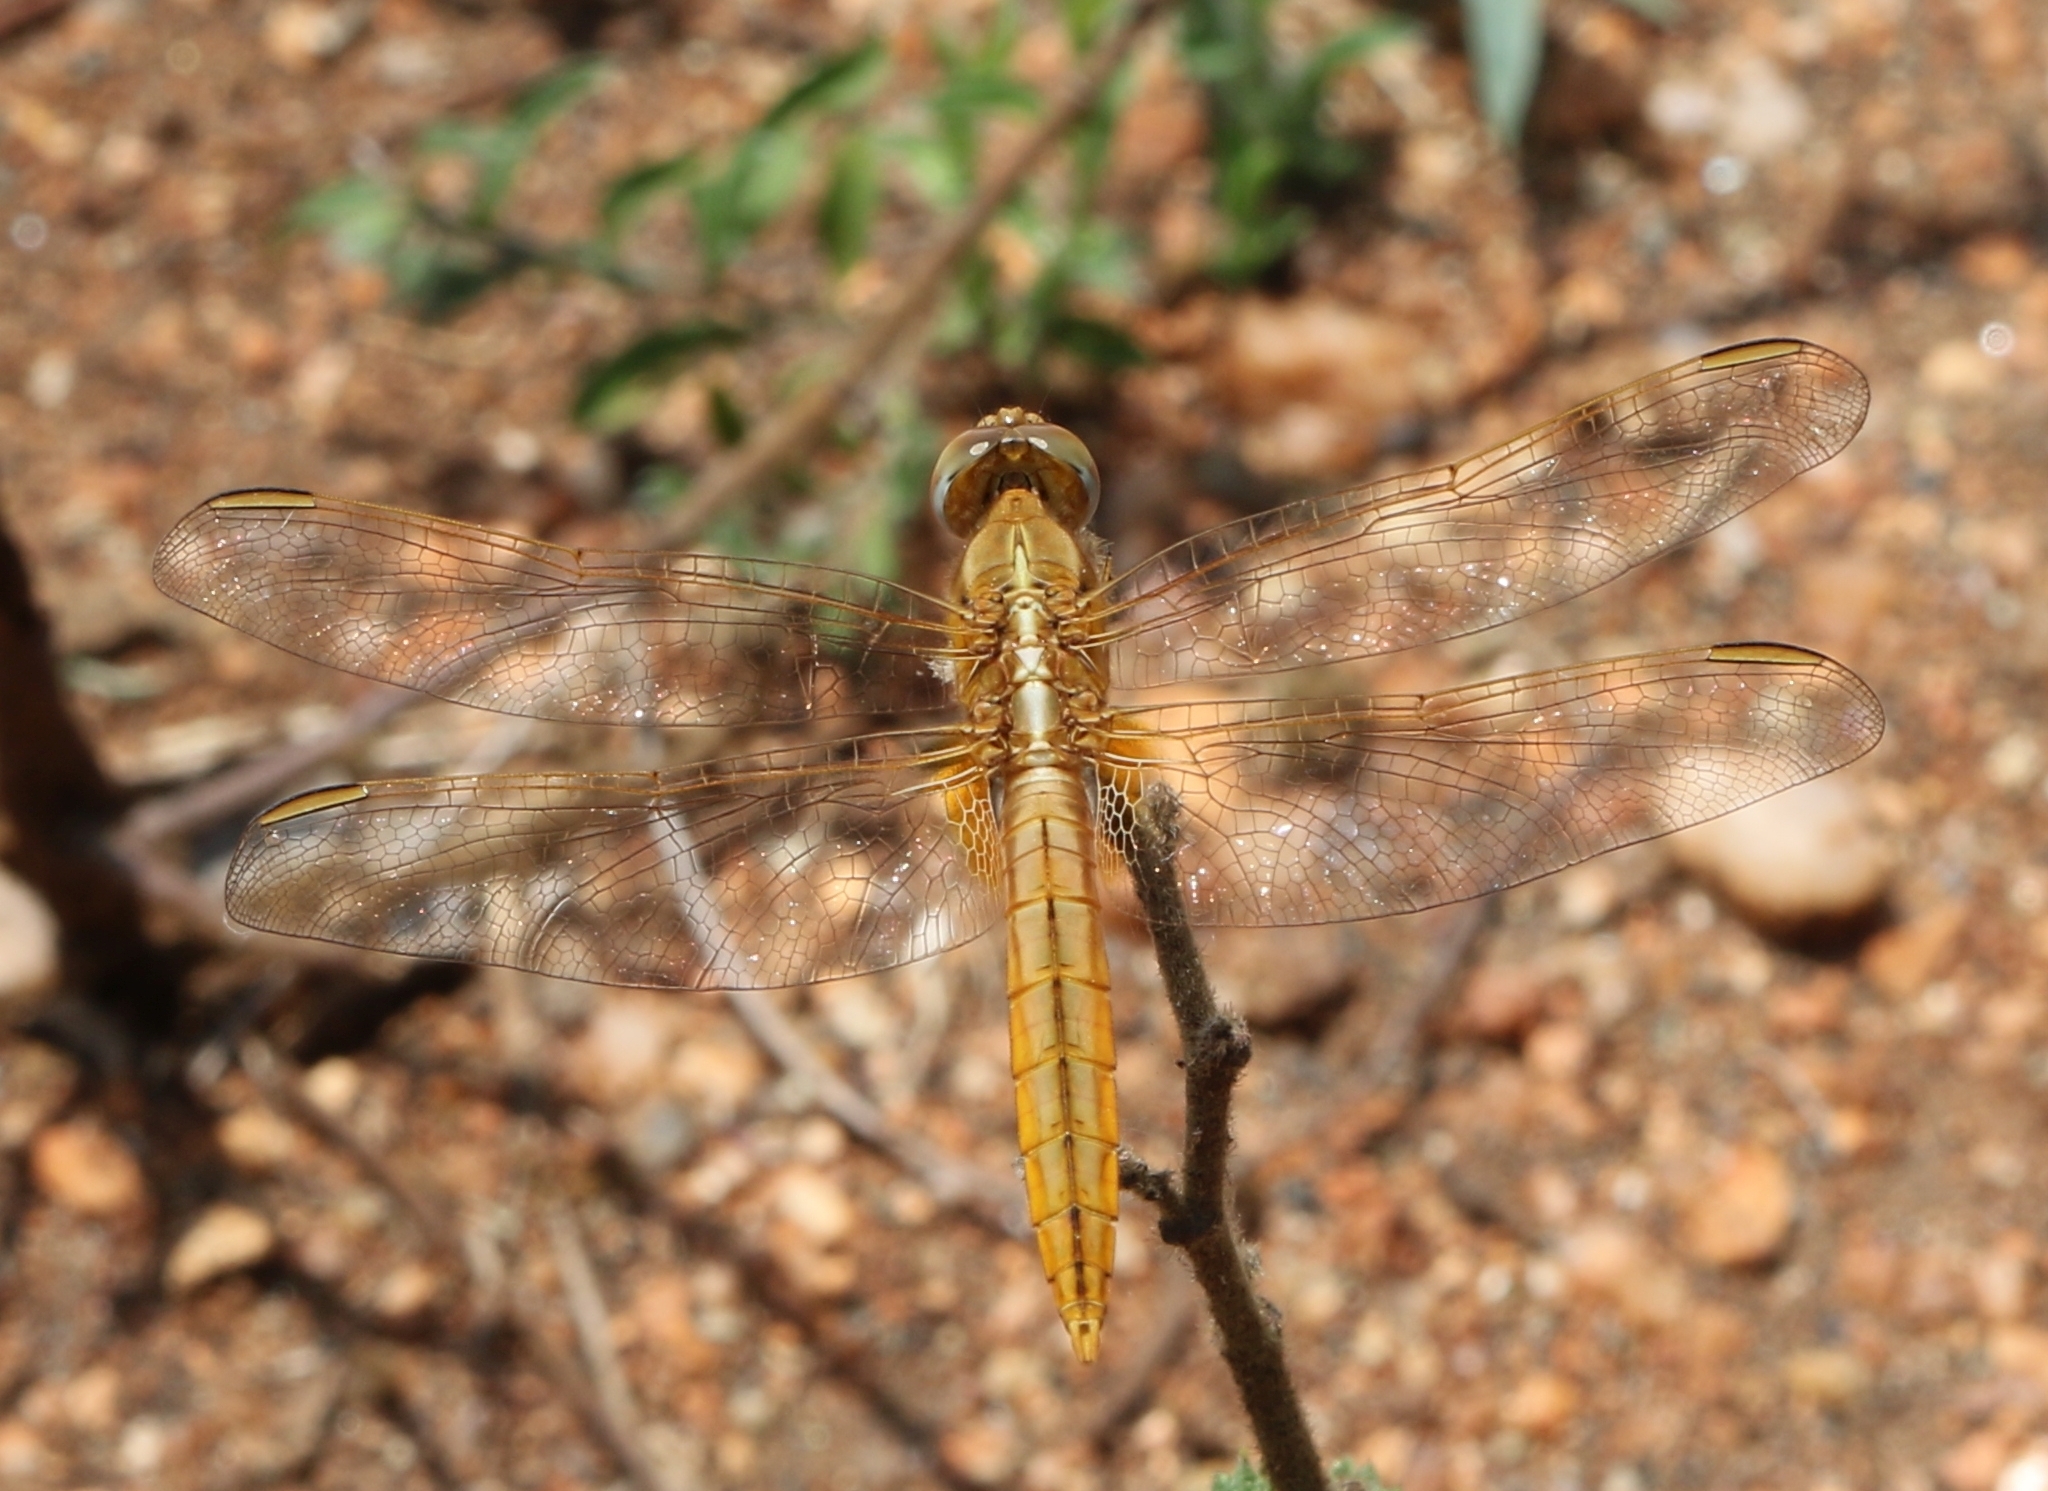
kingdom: Animalia
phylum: Arthropoda
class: Insecta
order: Odonata
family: Libellulidae
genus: Crocothemis
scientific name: Crocothemis erythraea
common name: Scarlet dragonfly
